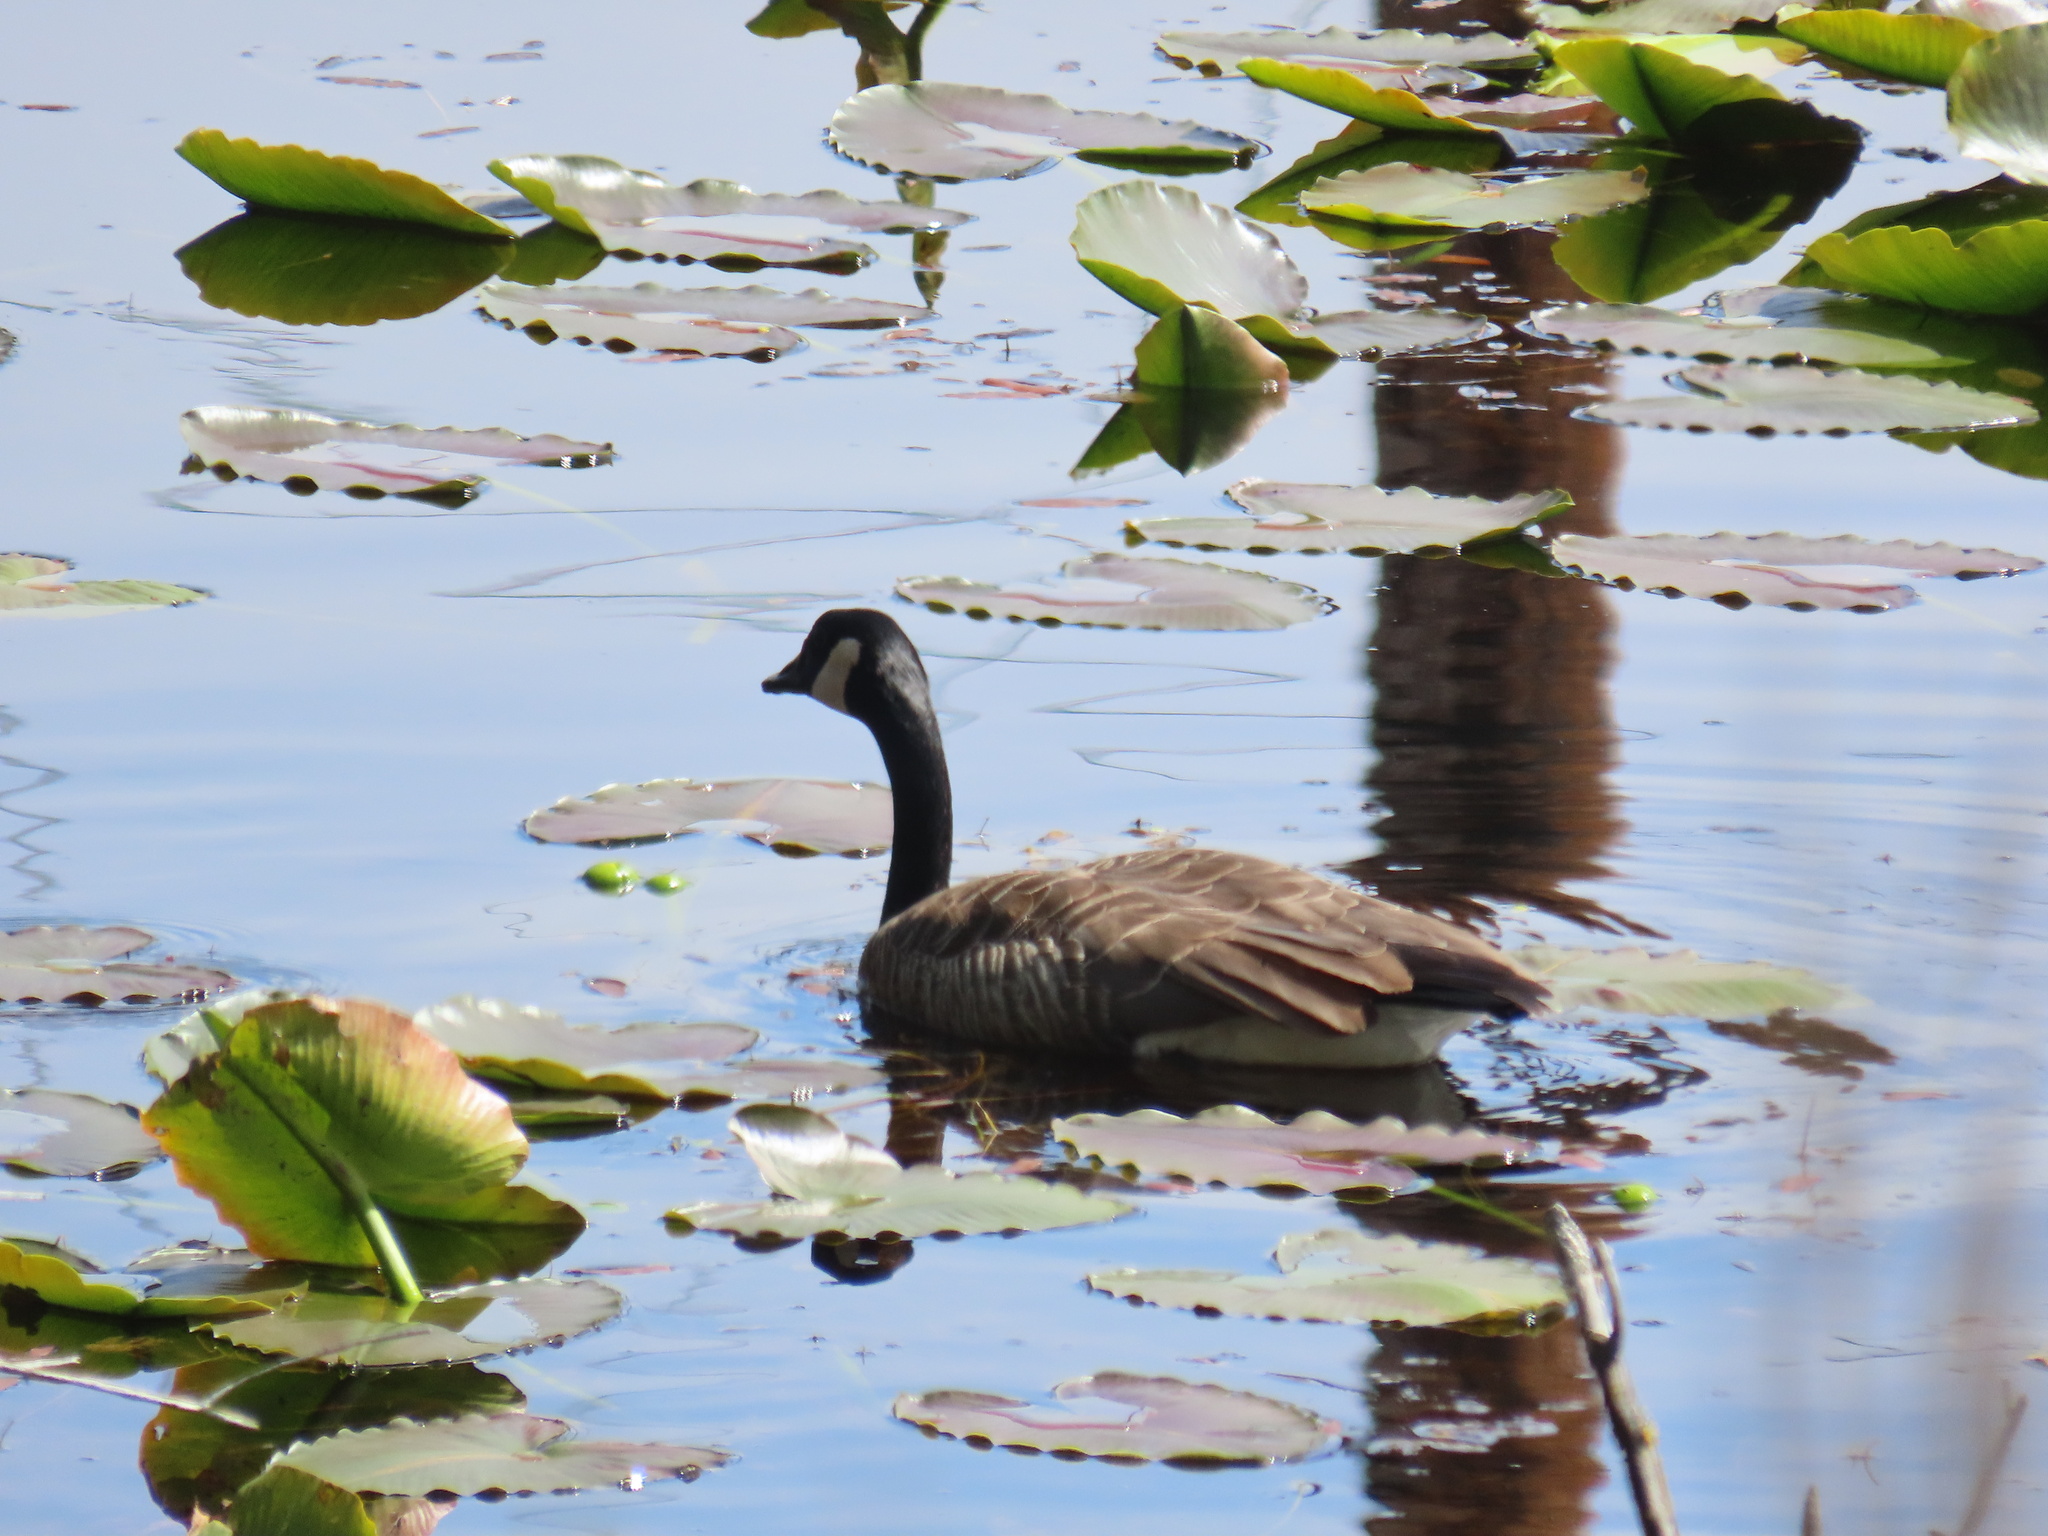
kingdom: Animalia
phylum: Chordata
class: Aves
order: Anseriformes
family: Anatidae
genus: Branta
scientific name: Branta canadensis
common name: Canada goose
